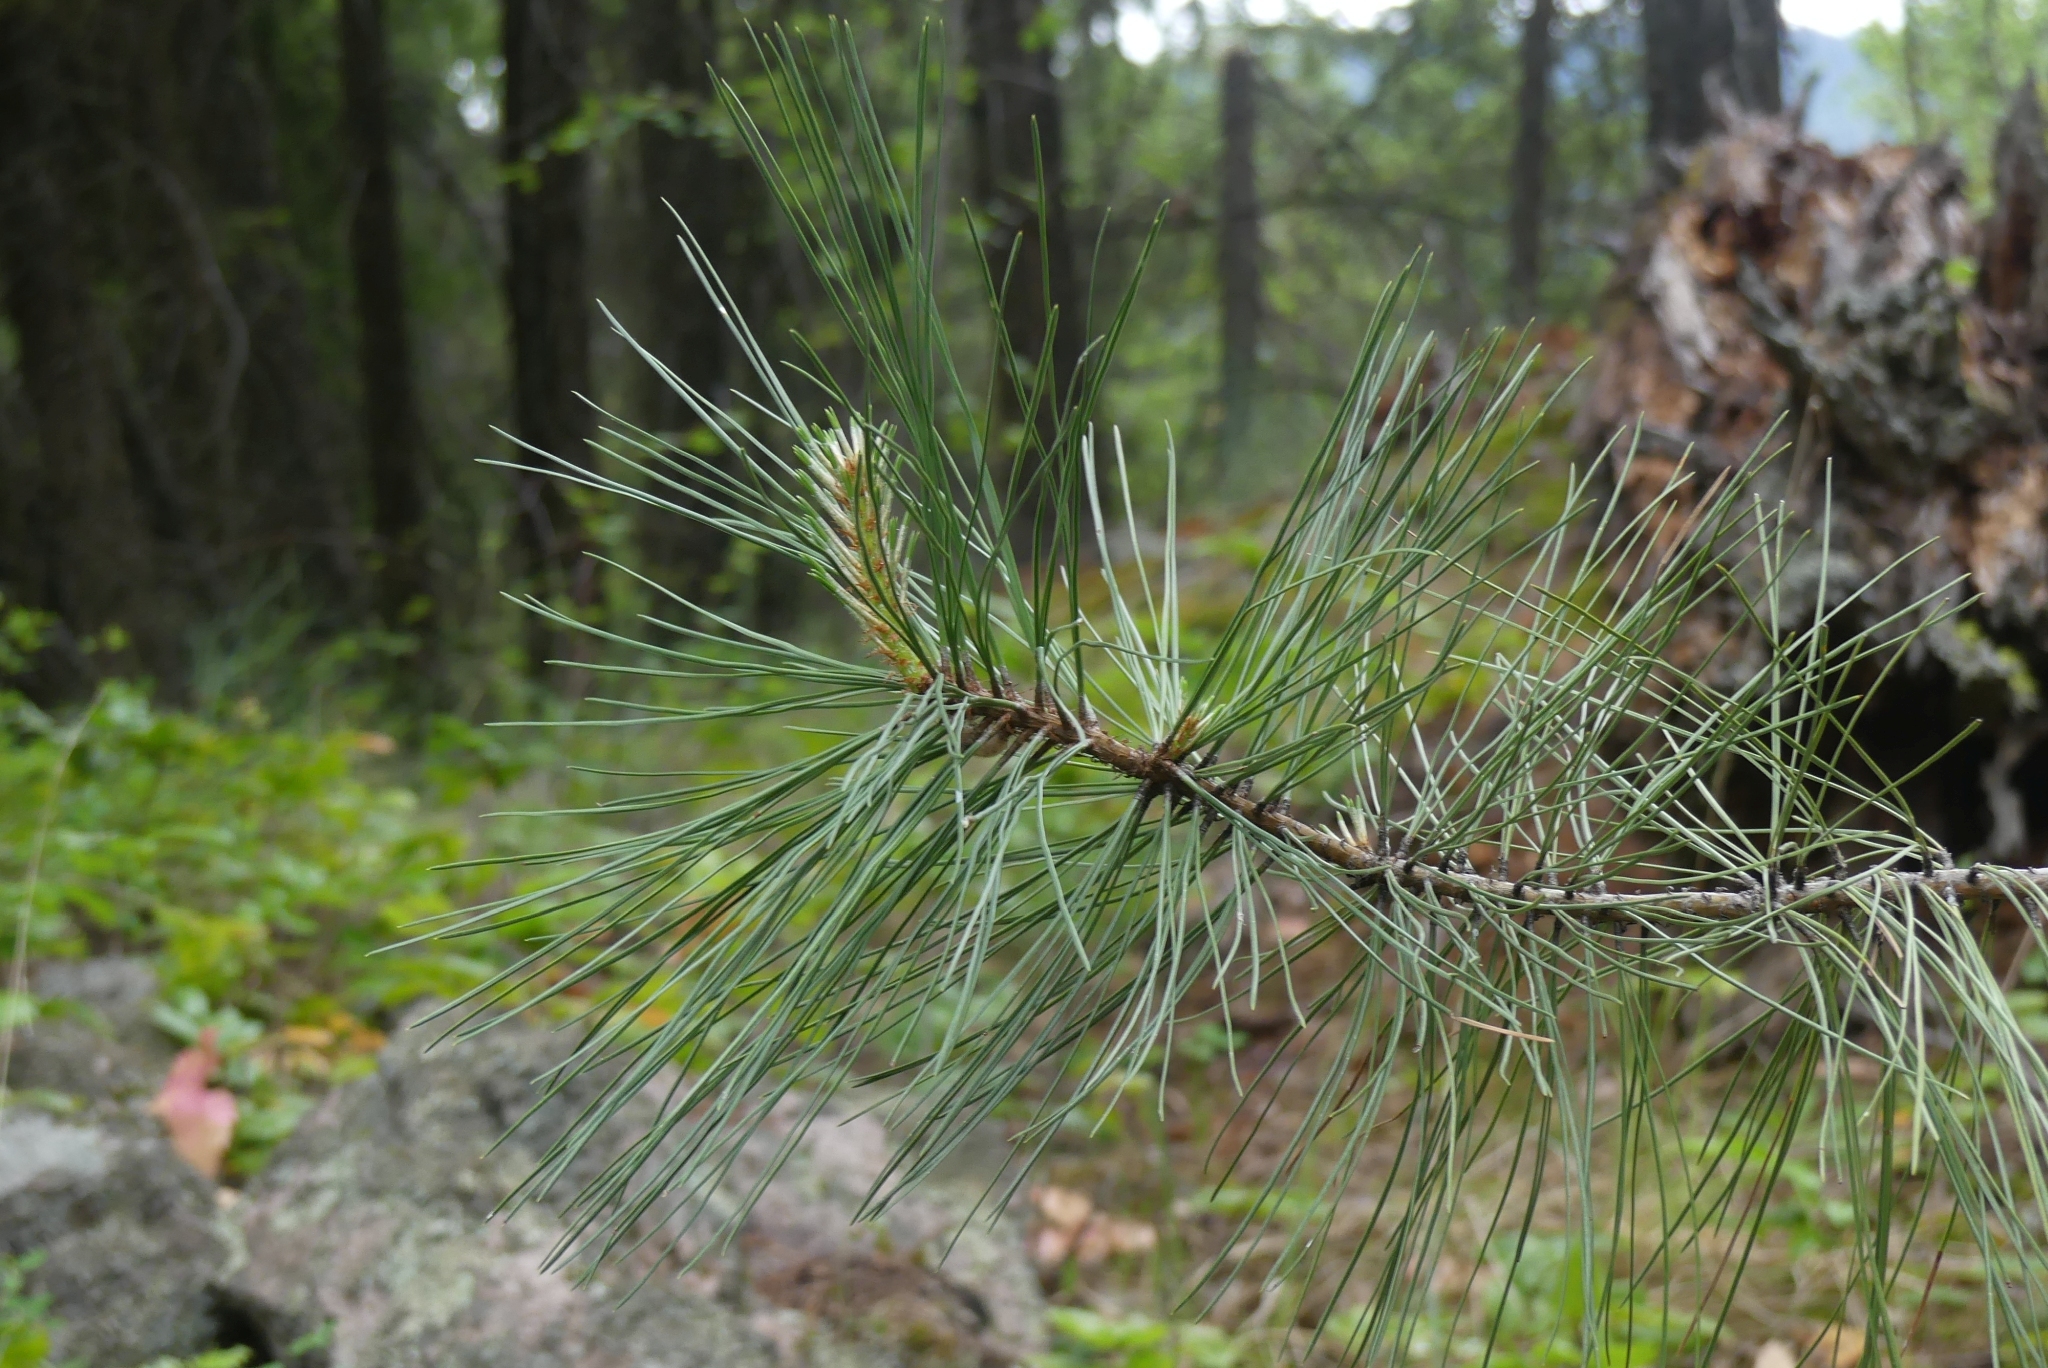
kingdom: Plantae
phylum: Tracheophyta
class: Pinopsida
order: Pinales
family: Pinaceae
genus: Pinus
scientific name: Pinus ponderosa
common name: Western yellow-pine
